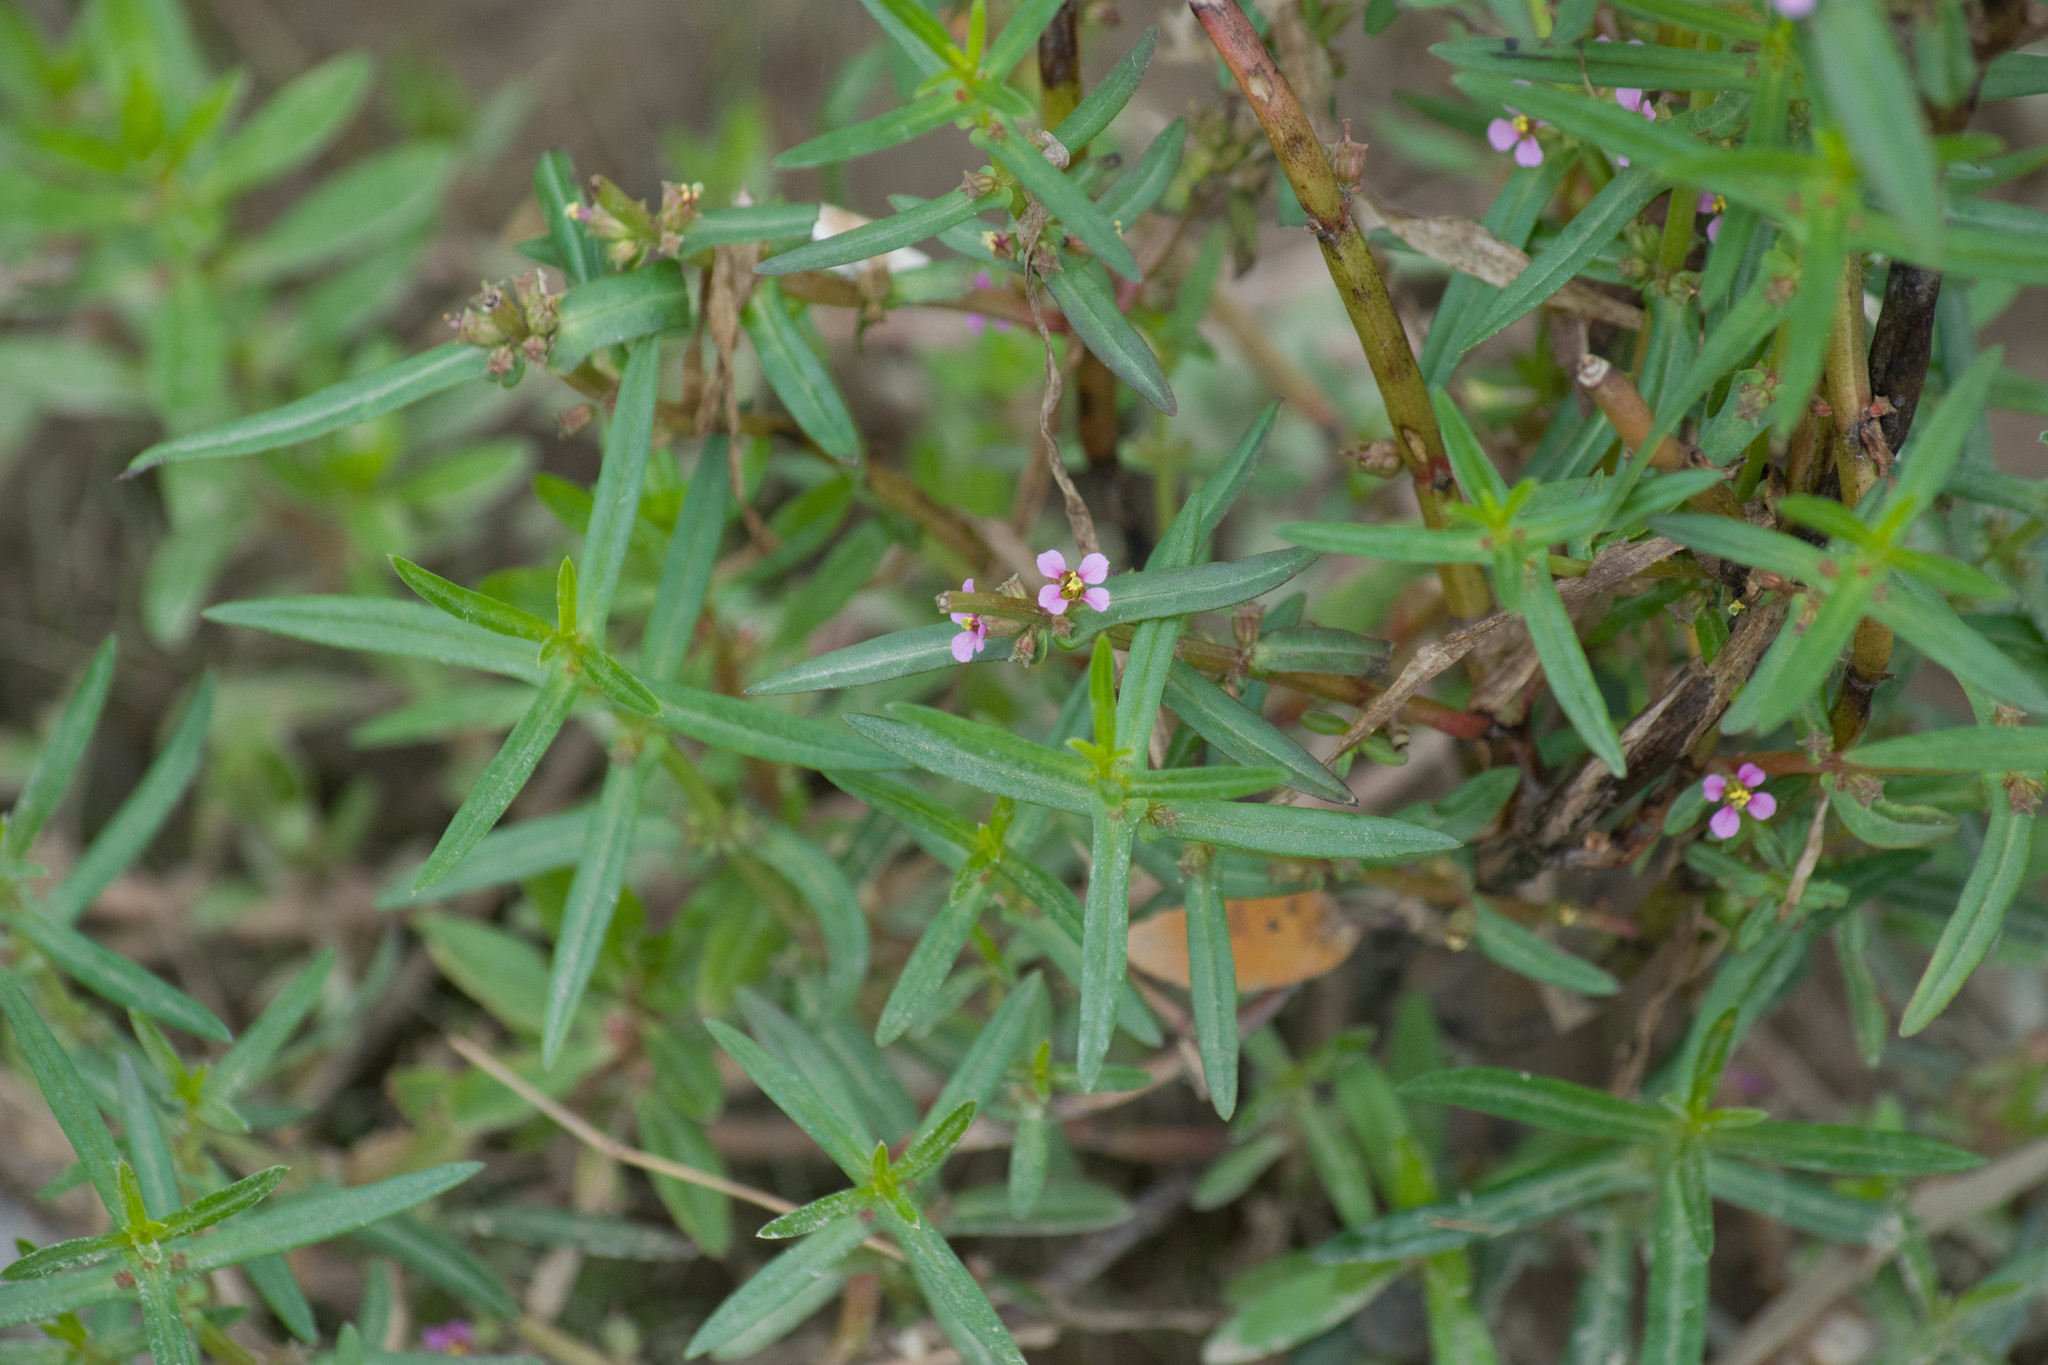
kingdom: Plantae
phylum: Tracheophyta
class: Magnoliopsida
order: Myrtales
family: Lythraceae
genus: Ammannia
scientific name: Ammannia coccinea
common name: Valley redstem
